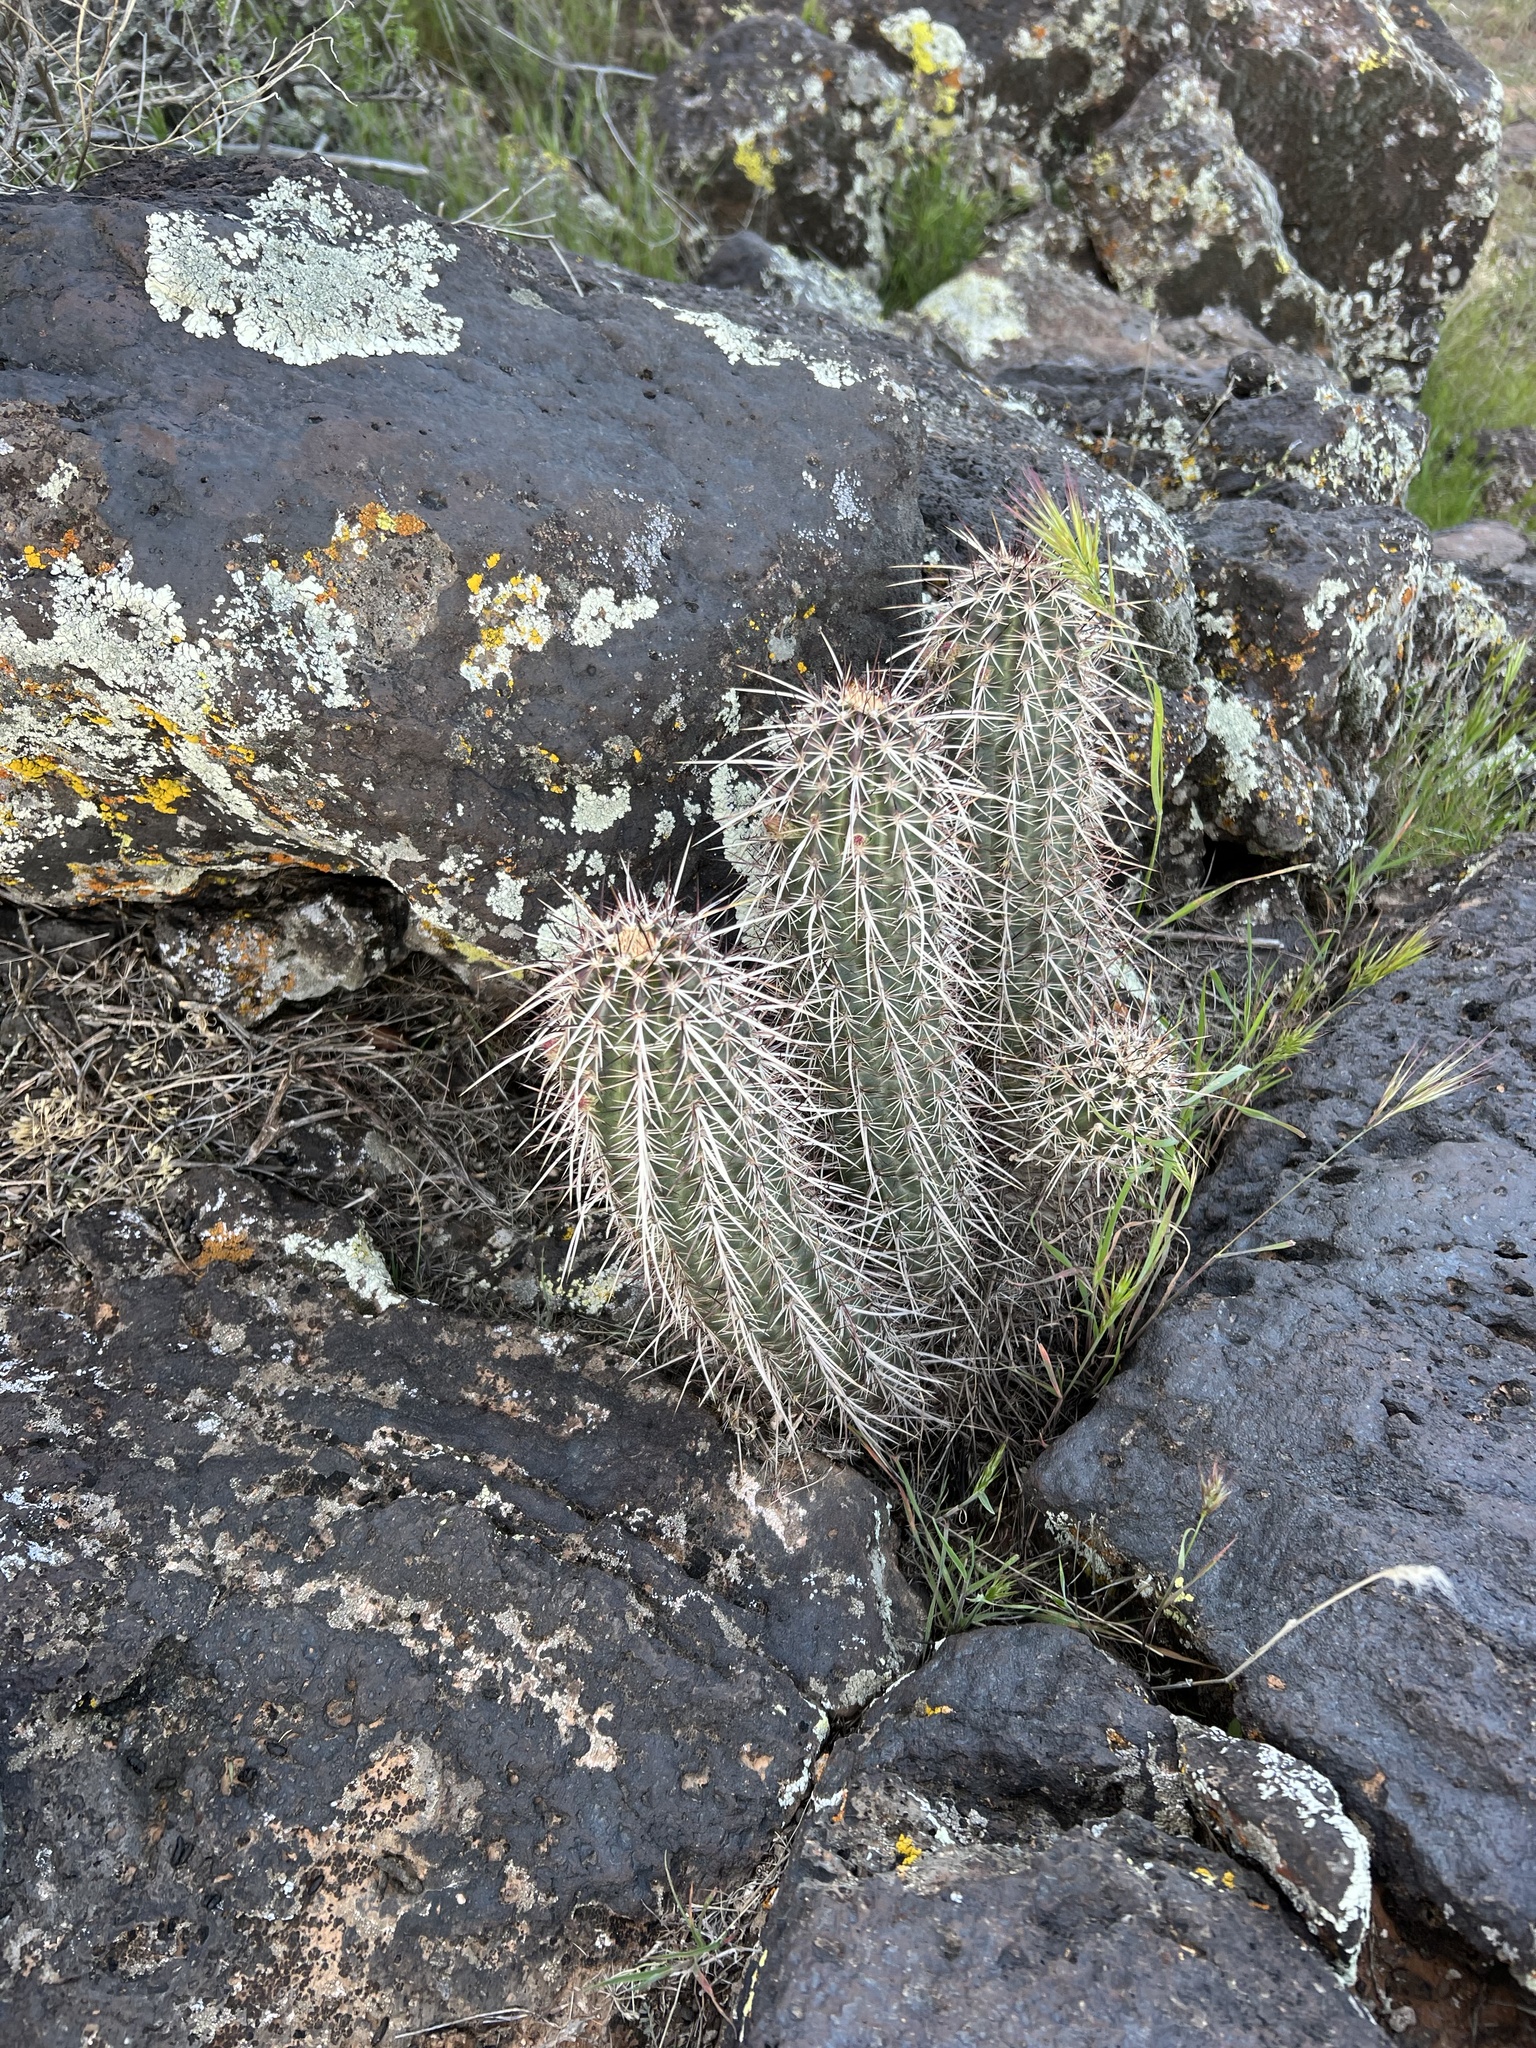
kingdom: Plantae
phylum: Tracheophyta
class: Magnoliopsida
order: Caryophyllales
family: Cactaceae
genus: Echinocereus
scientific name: Echinocereus relictus
